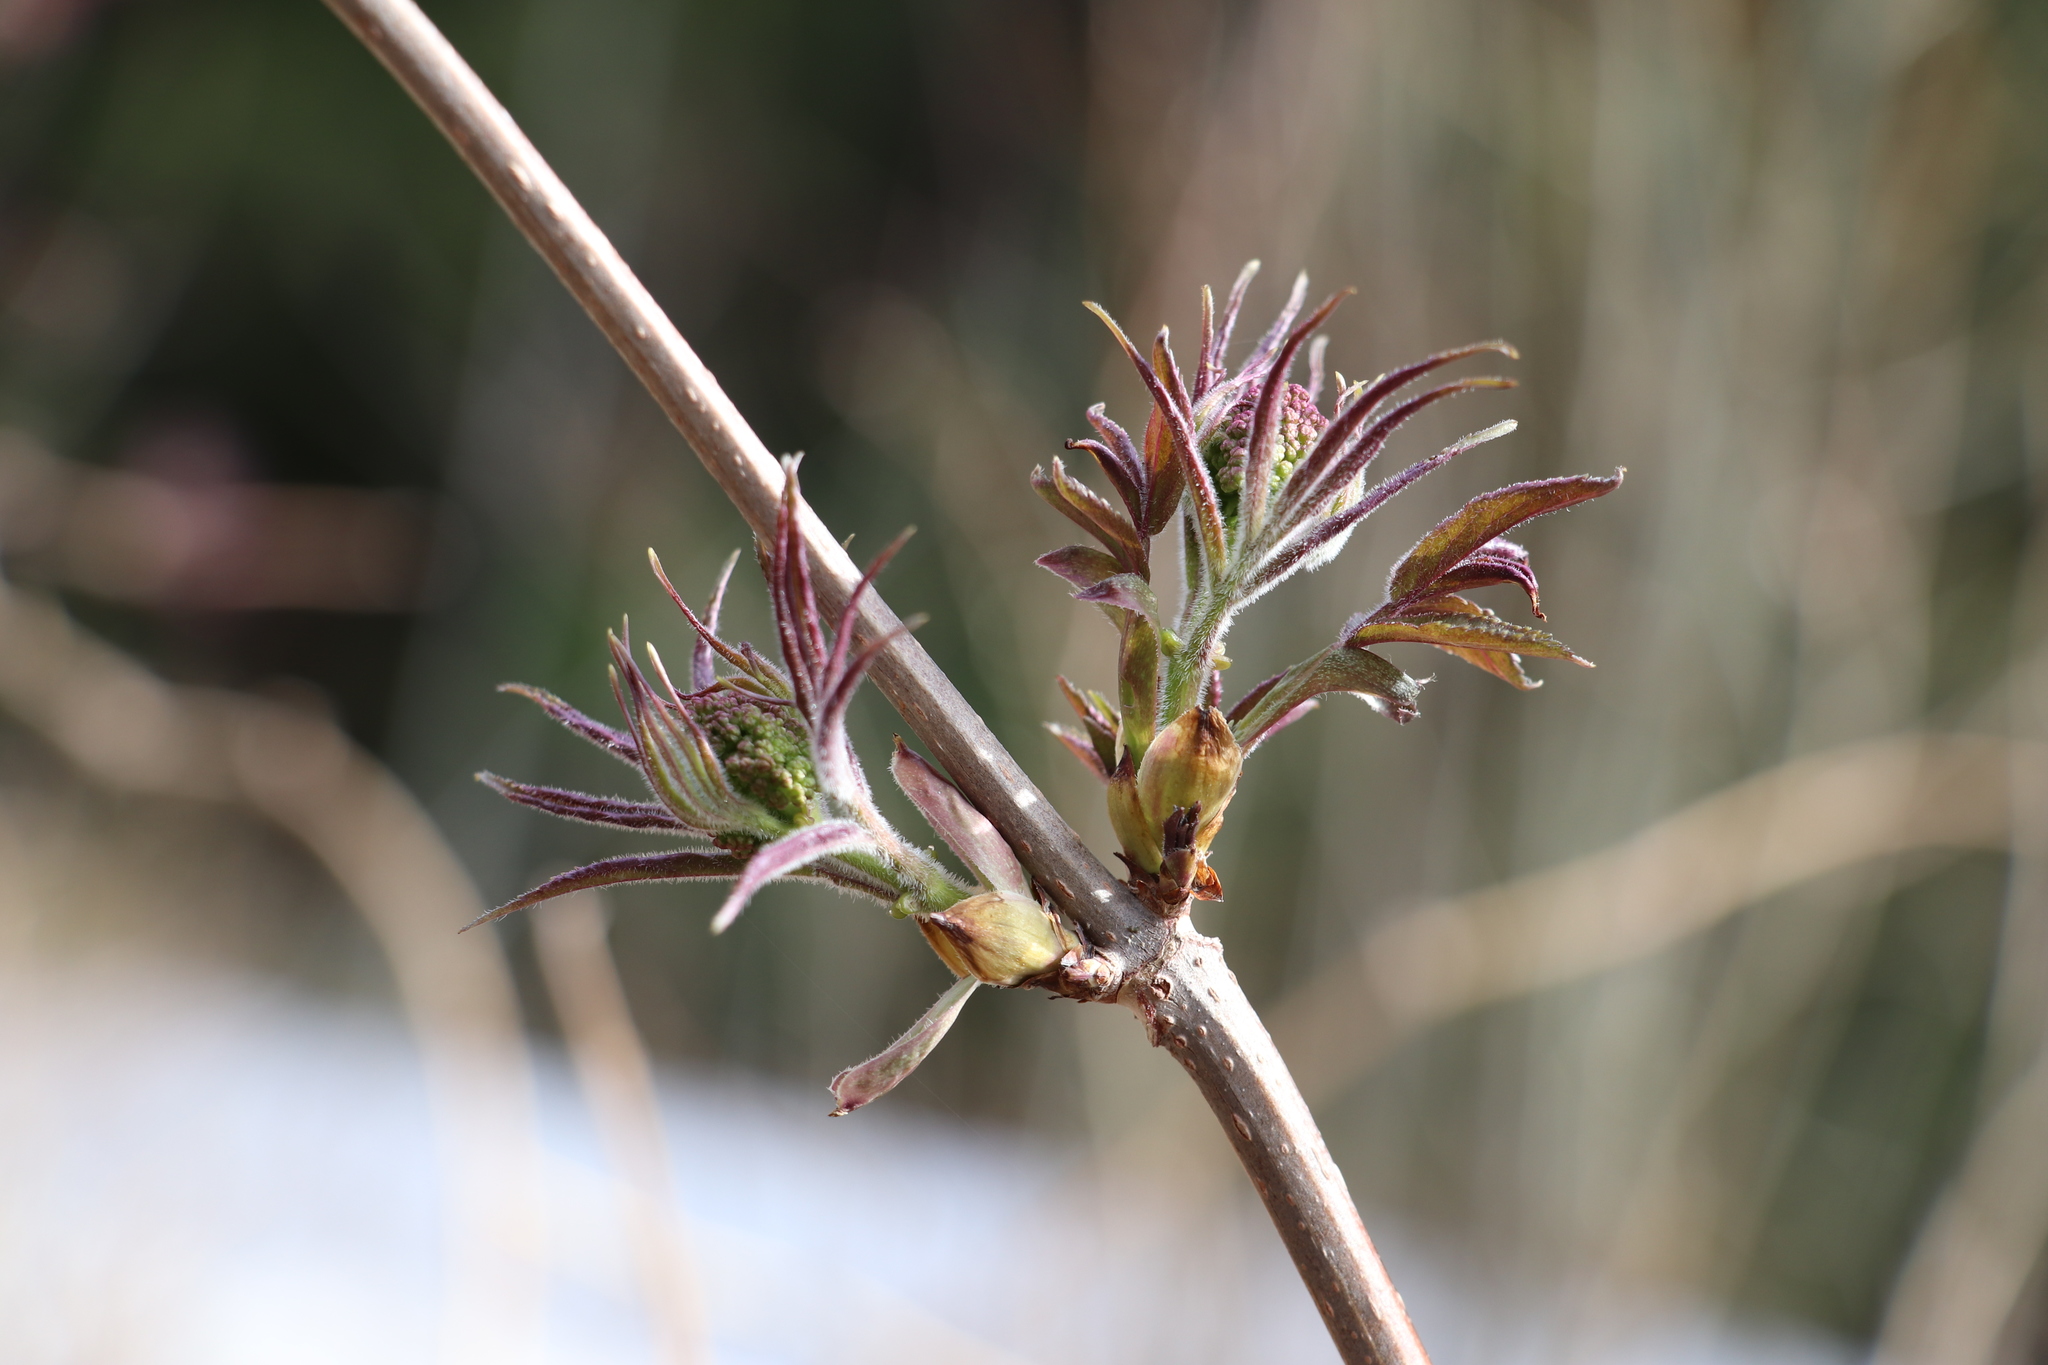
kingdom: Plantae
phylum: Tracheophyta
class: Magnoliopsida
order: Dipsacales
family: Viburnaceae
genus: Sambucus
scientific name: Sambucus sibirica
